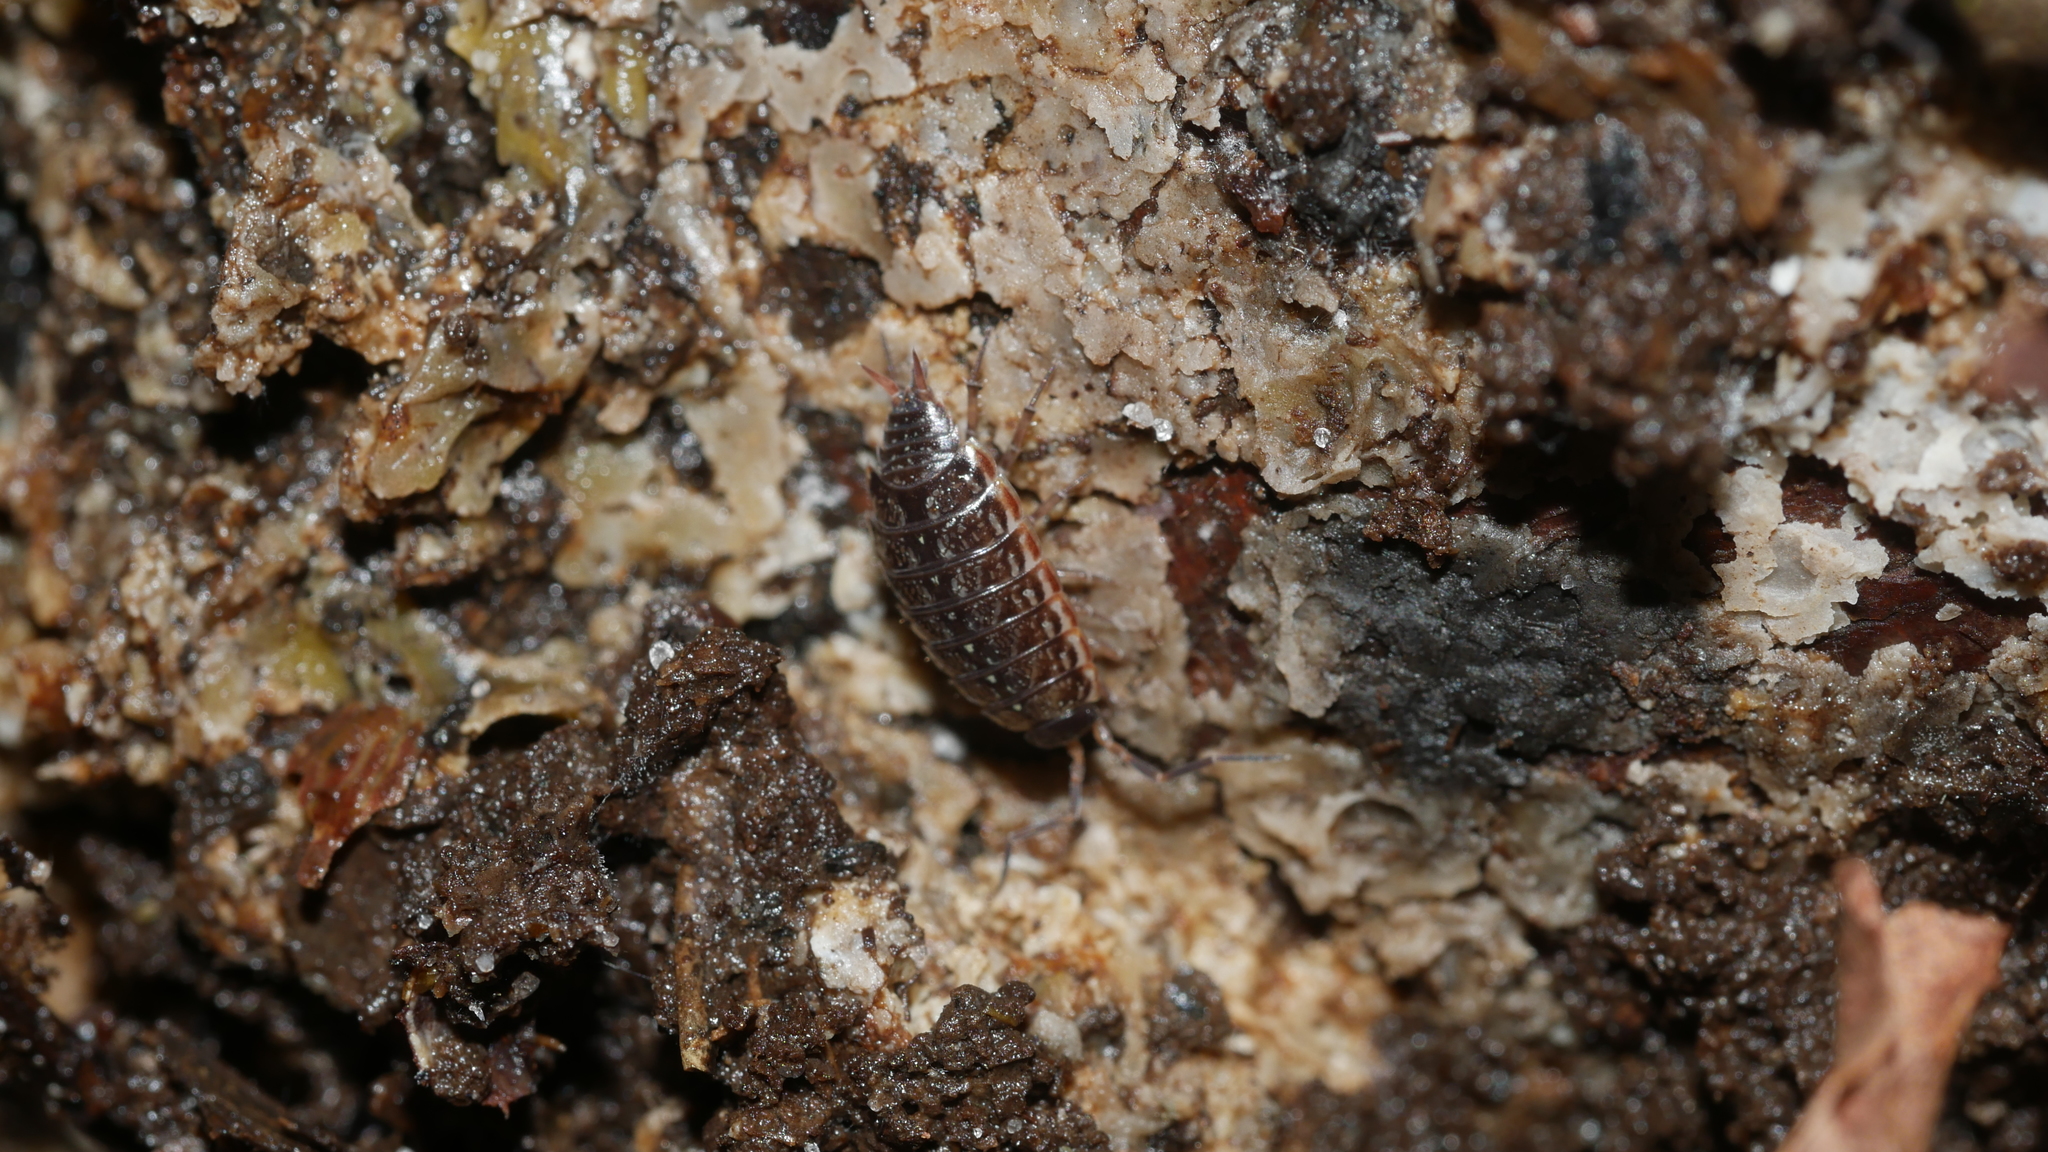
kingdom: Animalia
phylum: Arthropoda
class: Malacostraca
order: Isopoda
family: Philosciidae
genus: Philoscia
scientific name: Philoscia muscorum
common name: Common striped woodlouse
